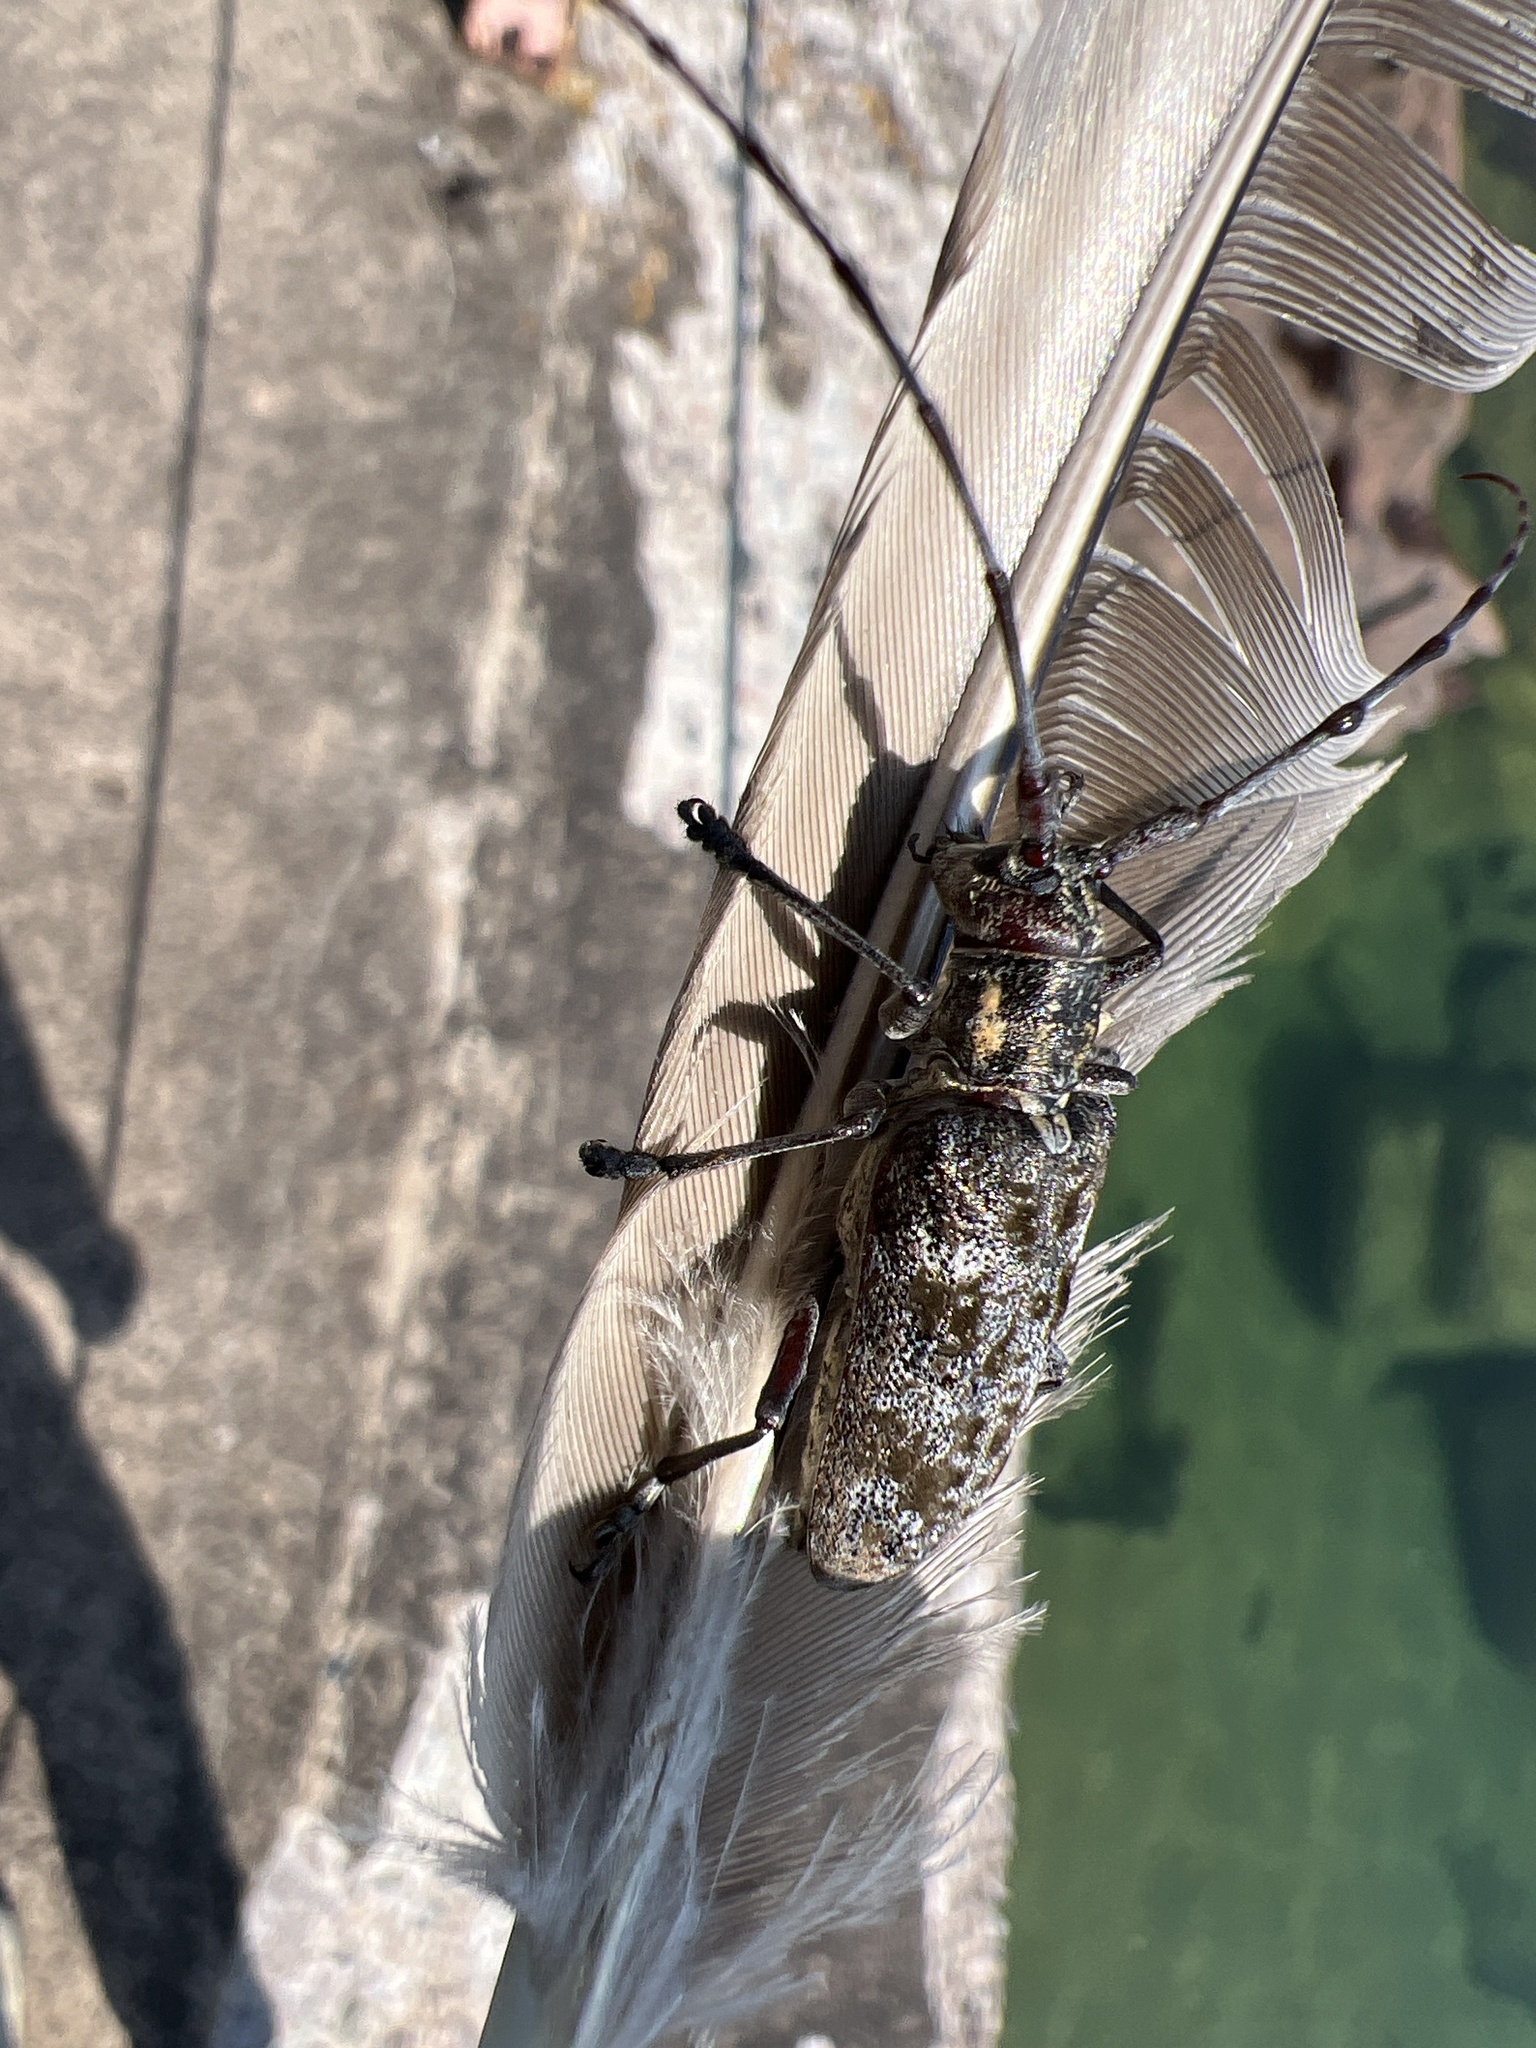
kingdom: Animalia
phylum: Arthropoda
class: Insecta
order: Coleoptera
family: Cerambycidae
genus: Monochamus
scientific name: Monochamus
